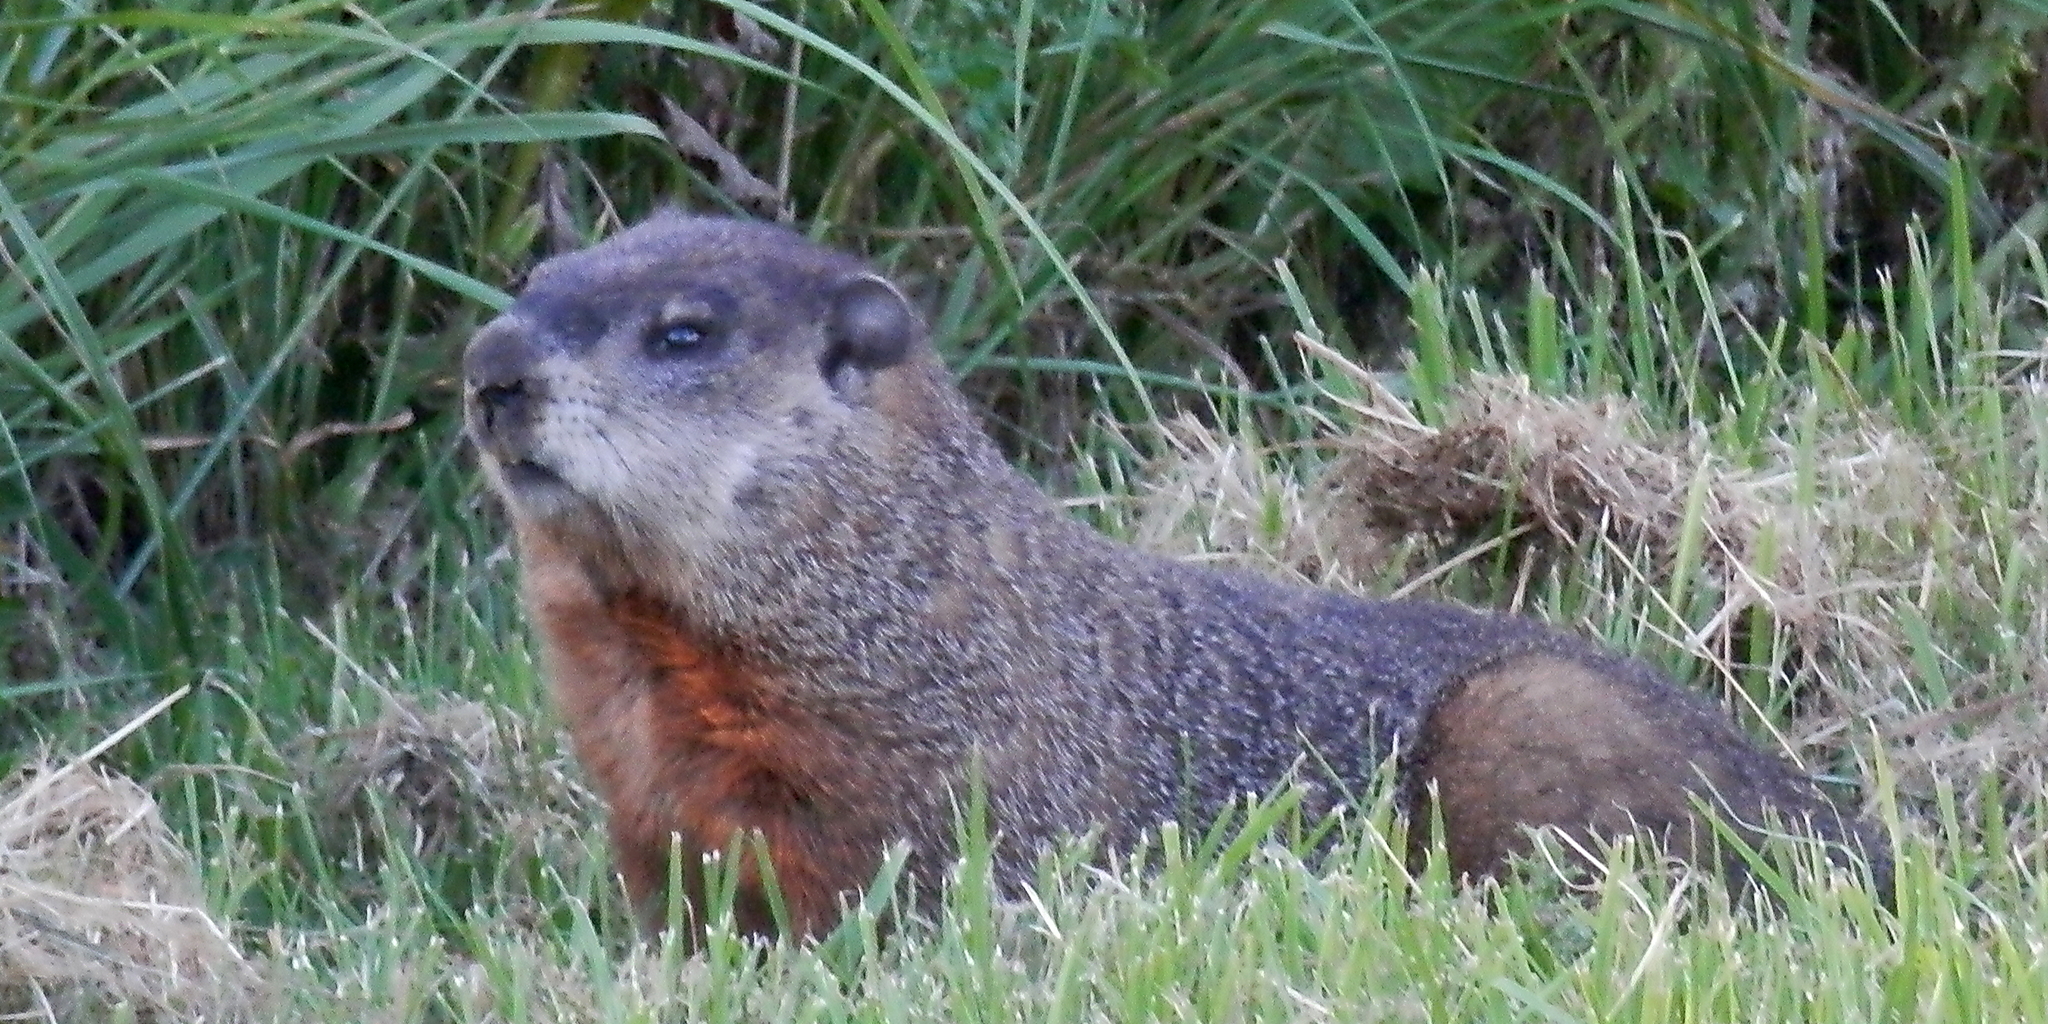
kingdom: Animalia
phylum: Chordata
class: Mammalia
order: Rodentia
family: Sciuridae
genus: Marmota
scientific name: Marmota monax
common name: Groundhog
